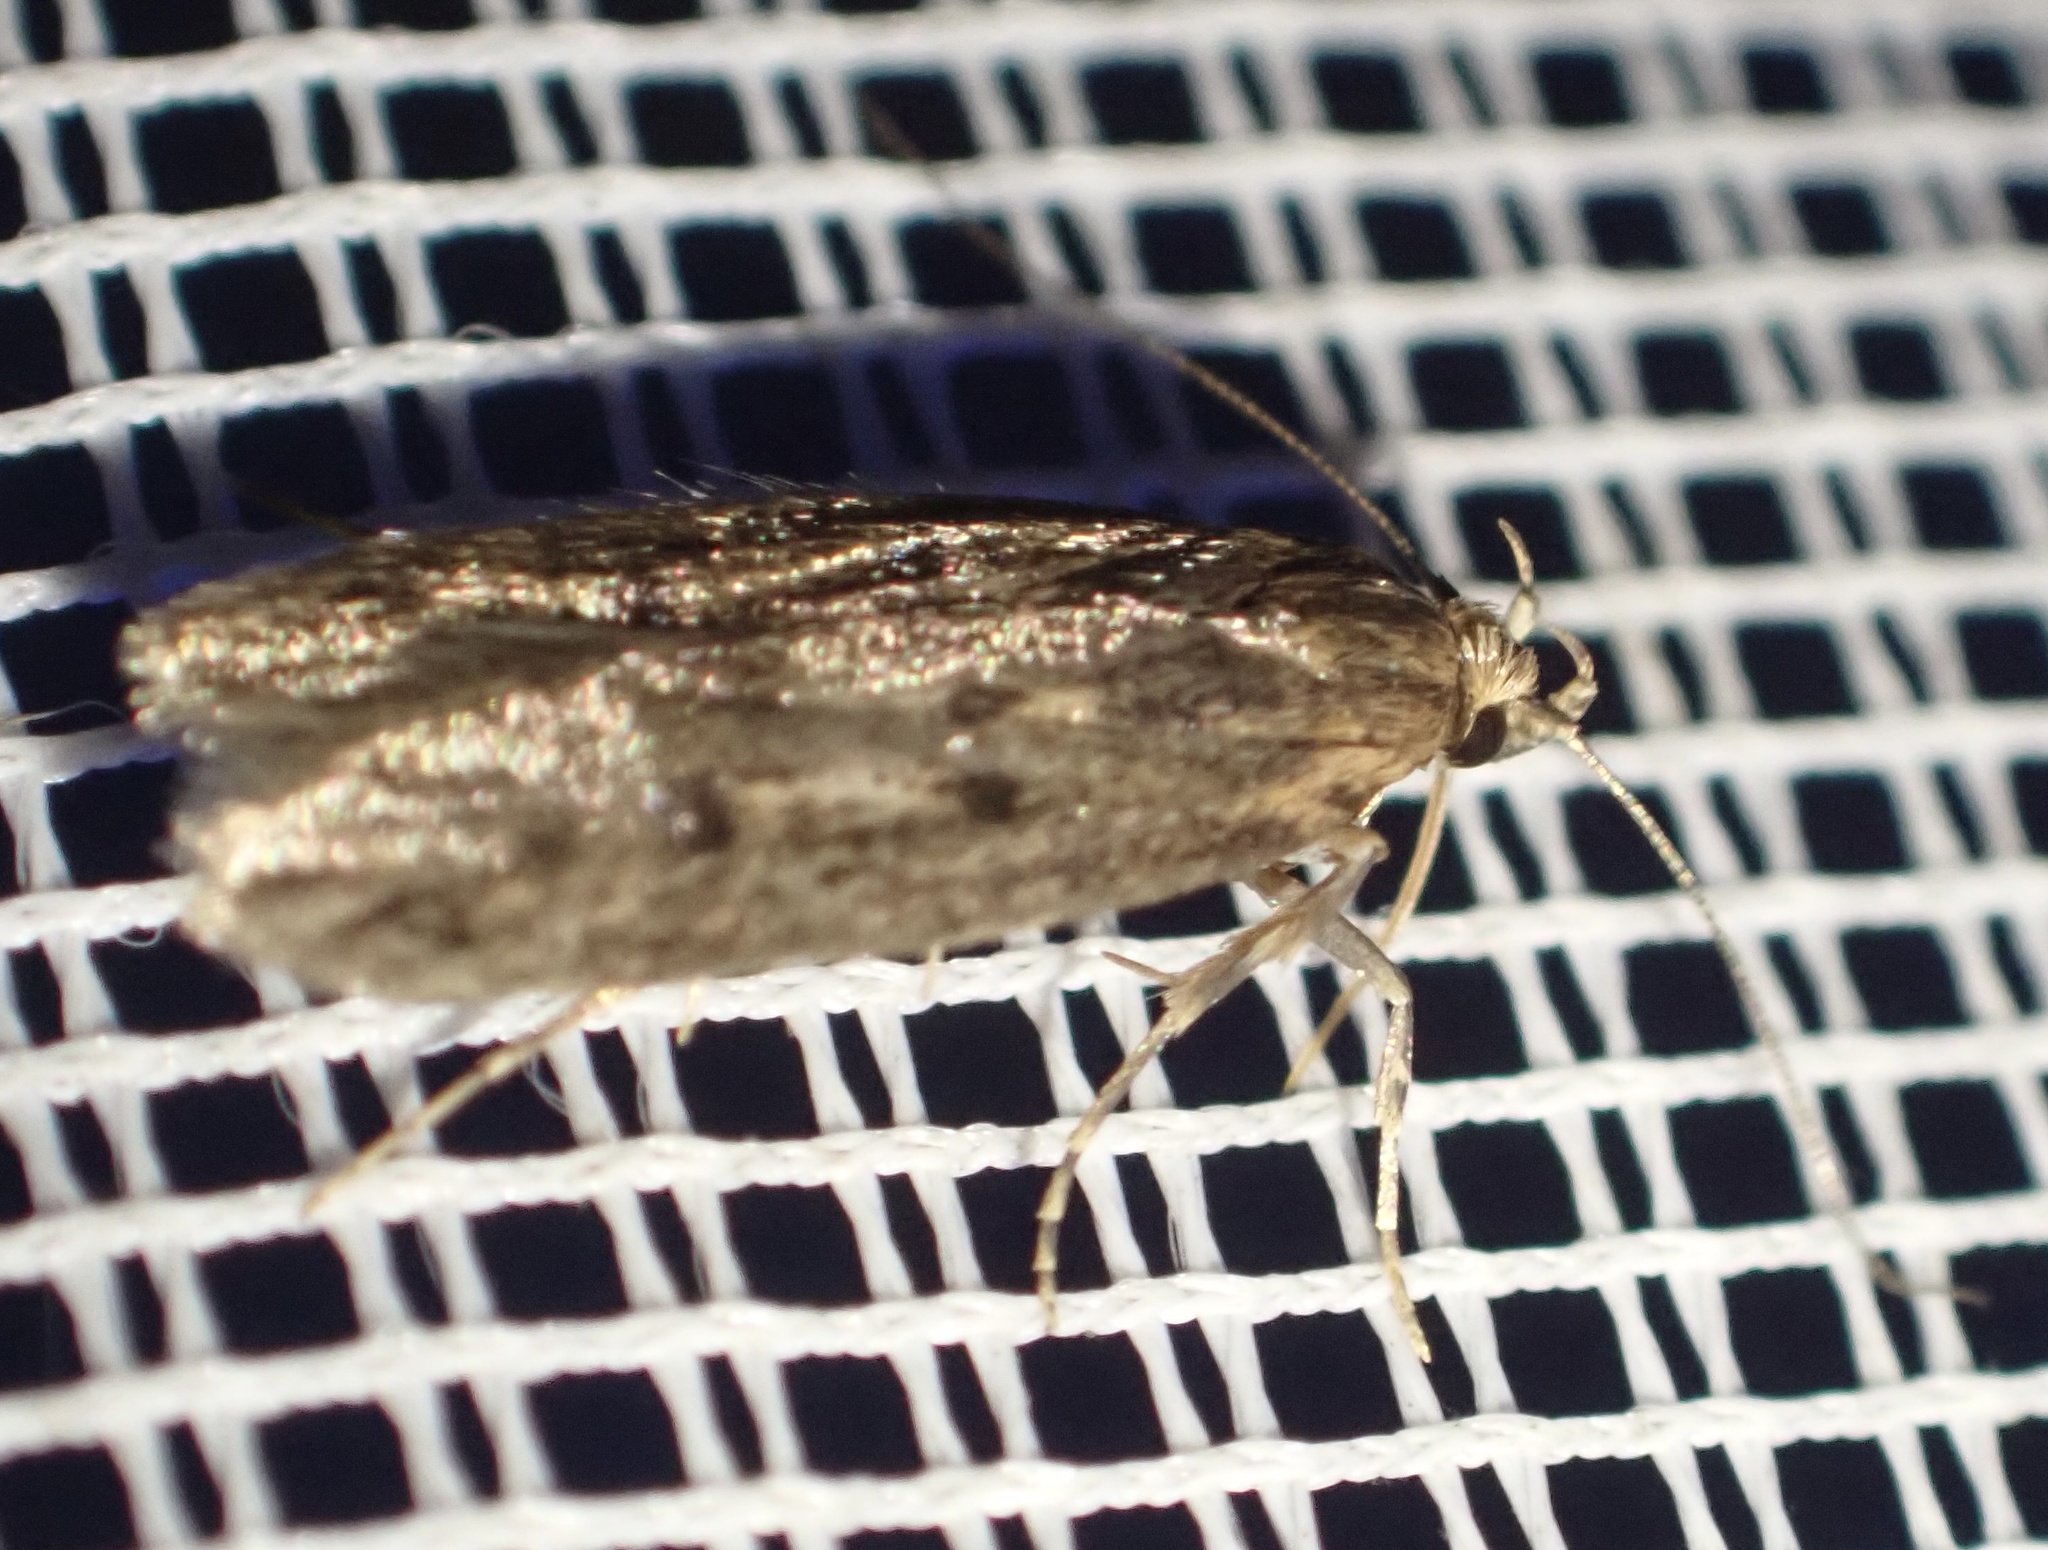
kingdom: Animalia
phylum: Arthropoda
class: Insecta
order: Lepidoptera
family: Oecophoridae
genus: Hofmannophila
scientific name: Hofmannophila pseudospretella
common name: Brown house moth
